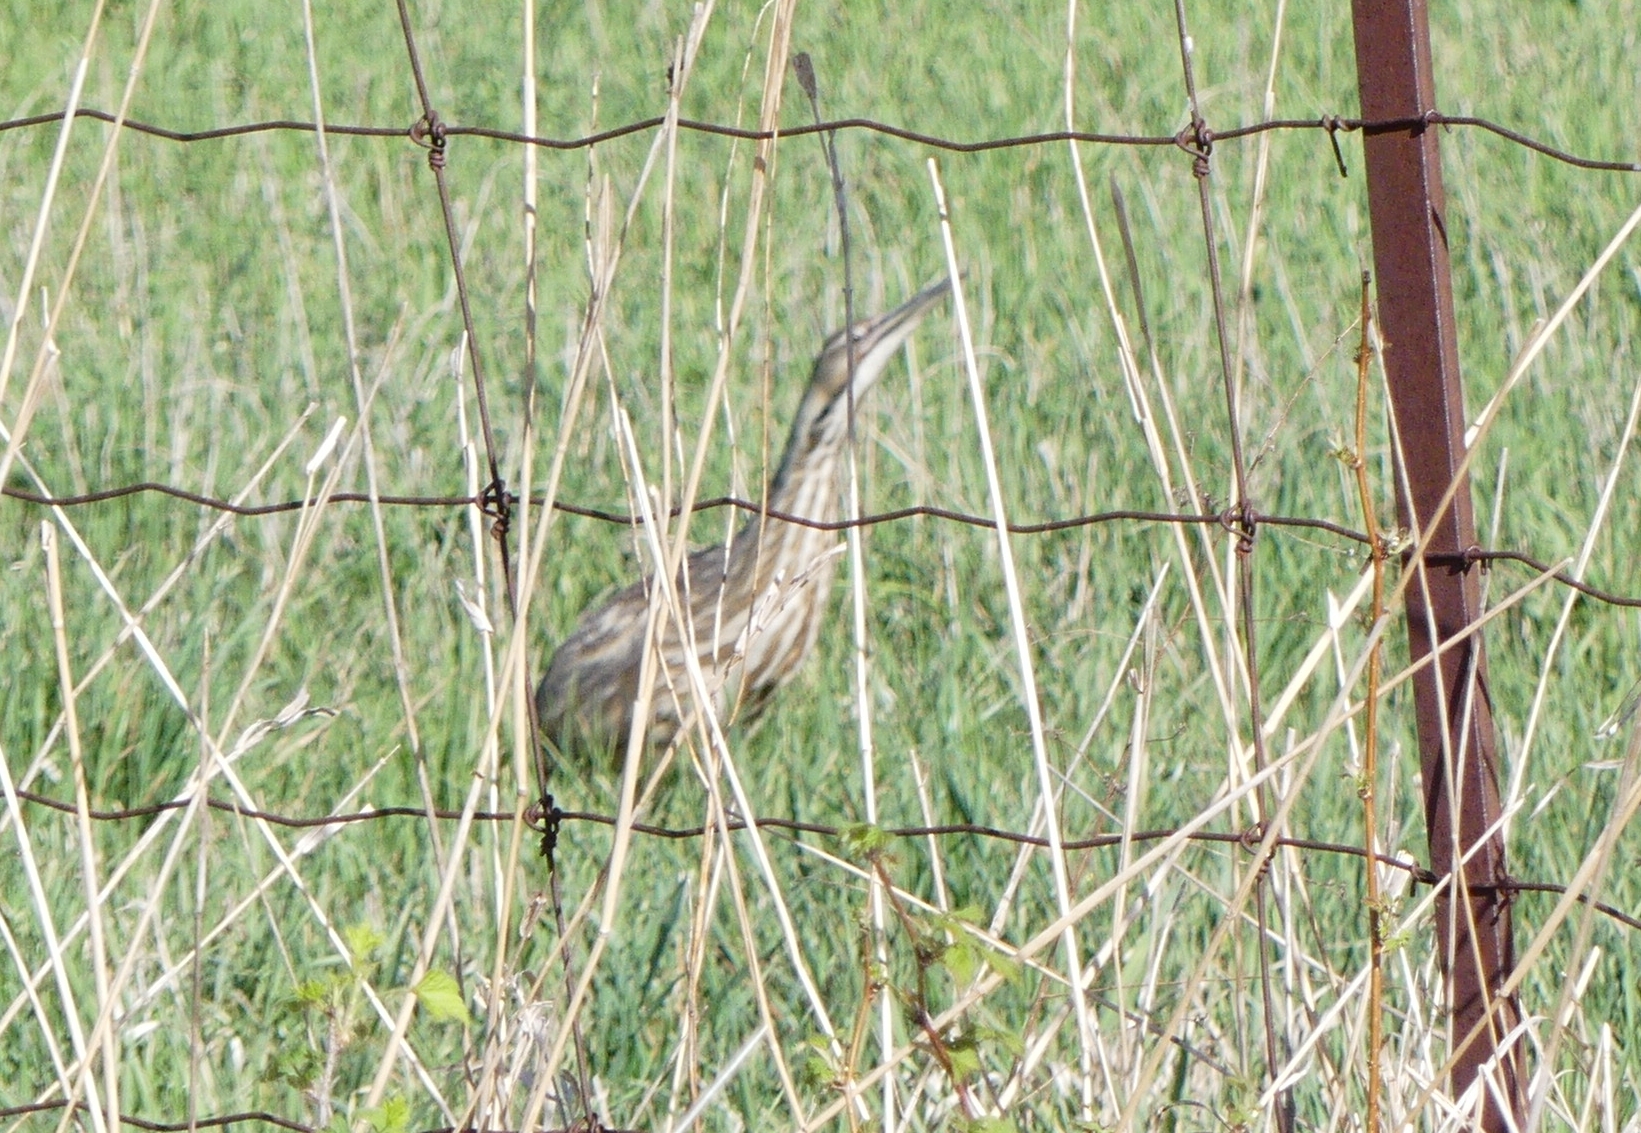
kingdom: Animalia
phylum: Chordata
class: Aves
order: Pelecaniformes
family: Ardeidae
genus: Botaurus
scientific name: Botaurus lentiginosus
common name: American bittern
